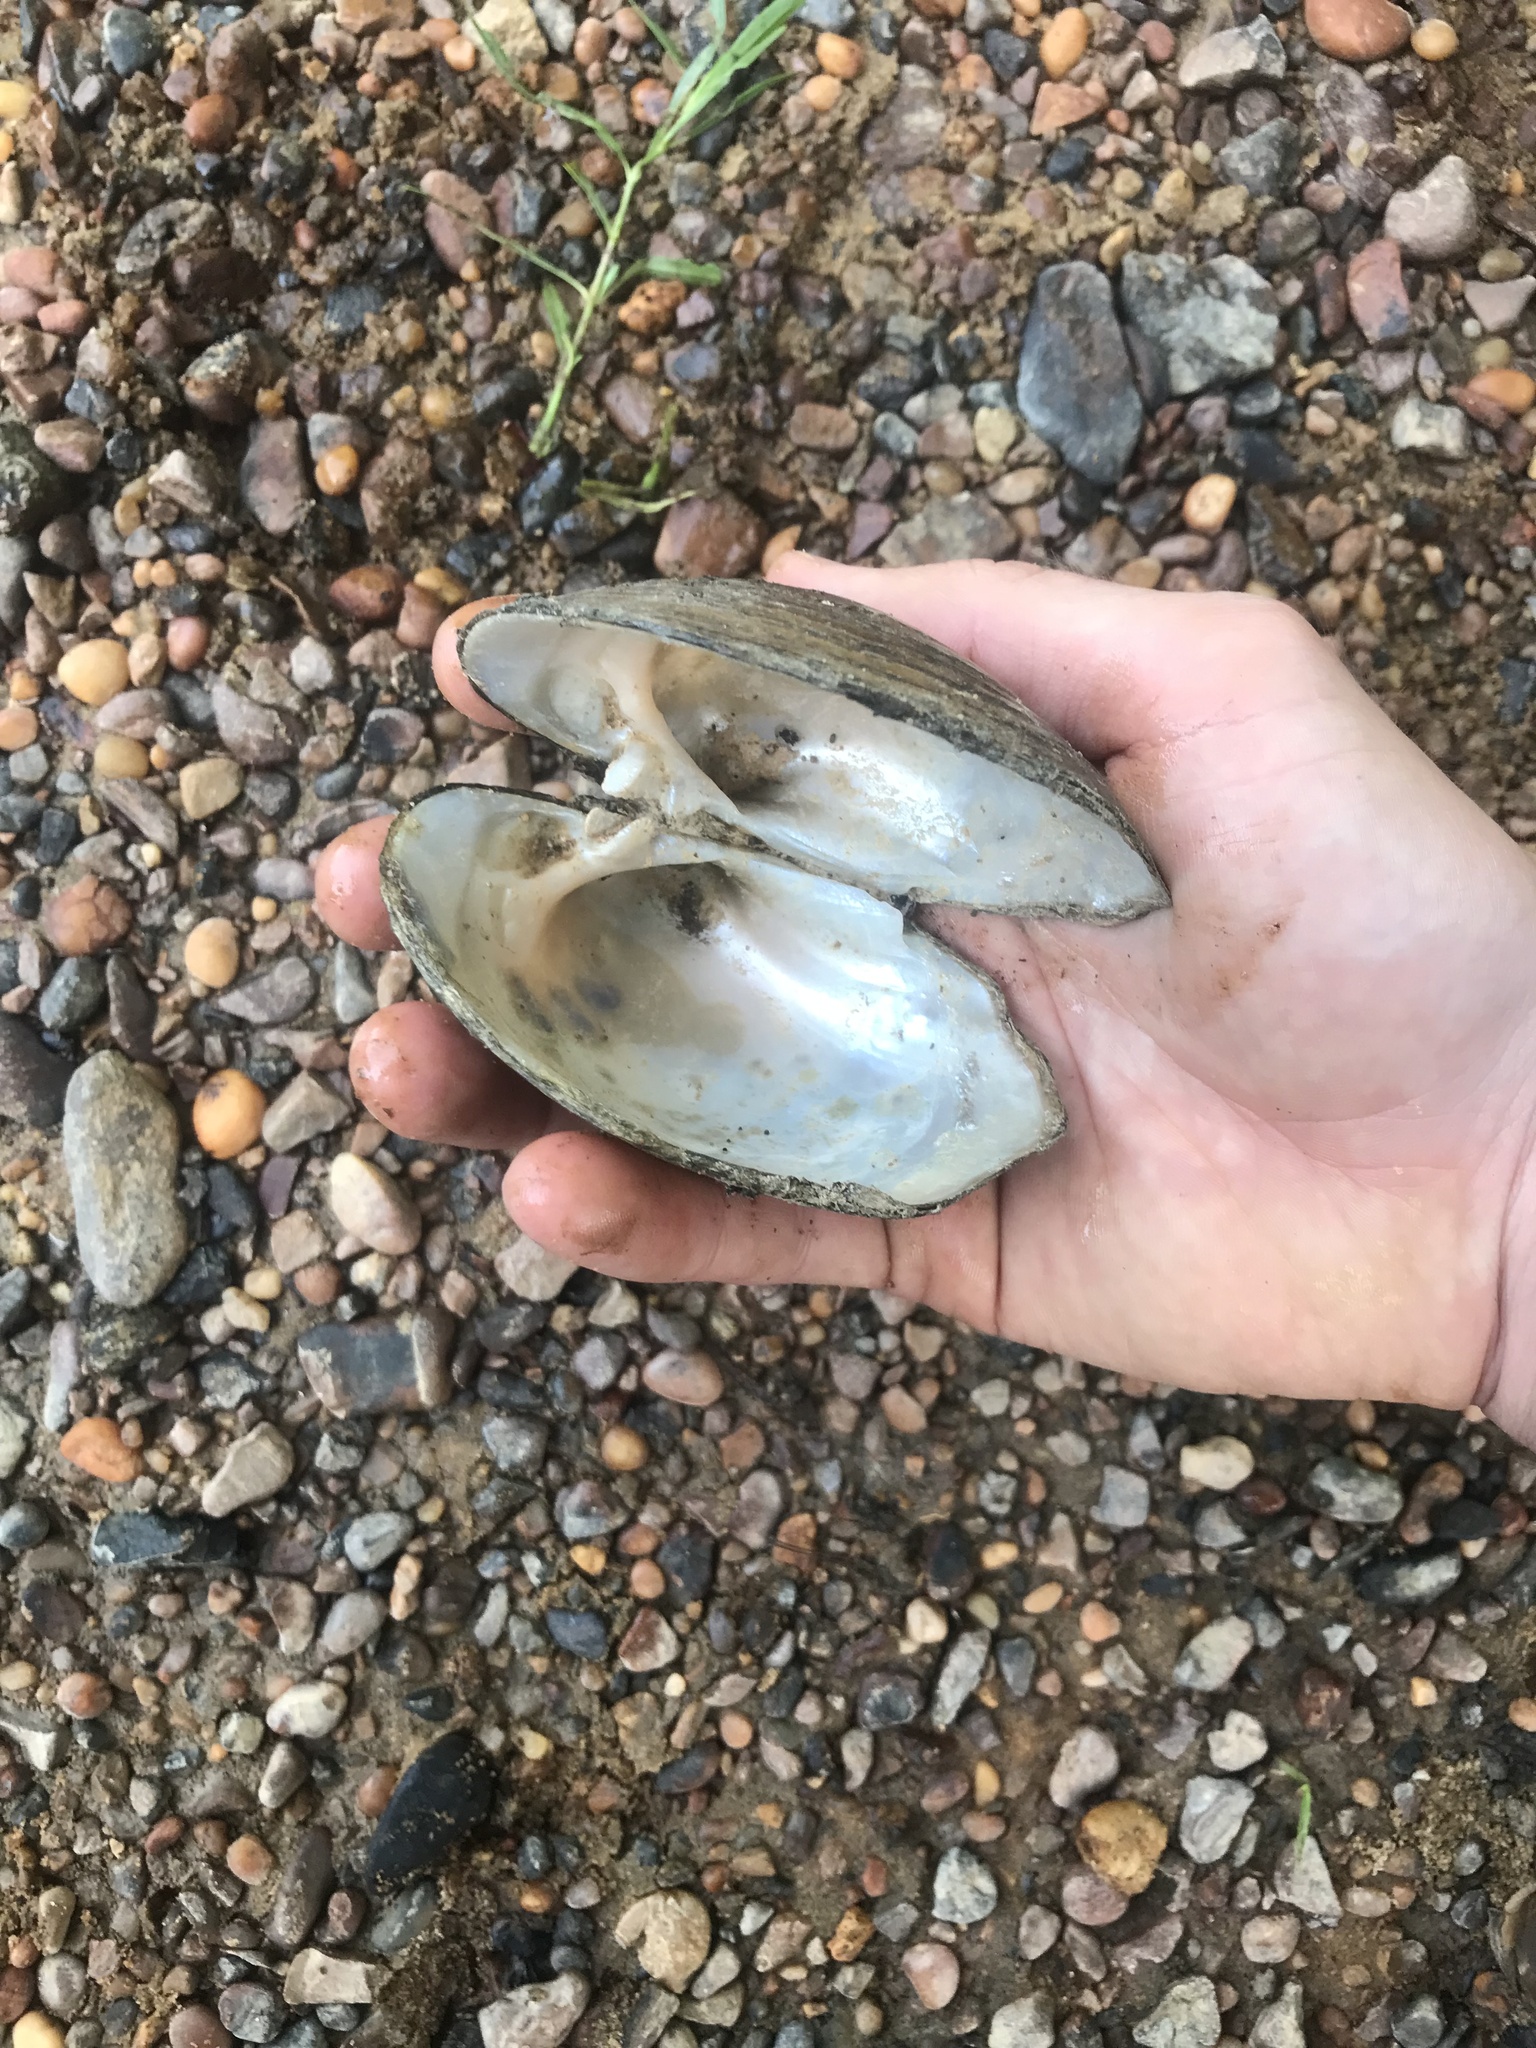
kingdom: Animalia
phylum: Mollusca
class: Bivalvia
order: Unionida
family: Unionidae
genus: Lampsilis
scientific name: Lampsilis ornata
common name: Southern pocketbook
